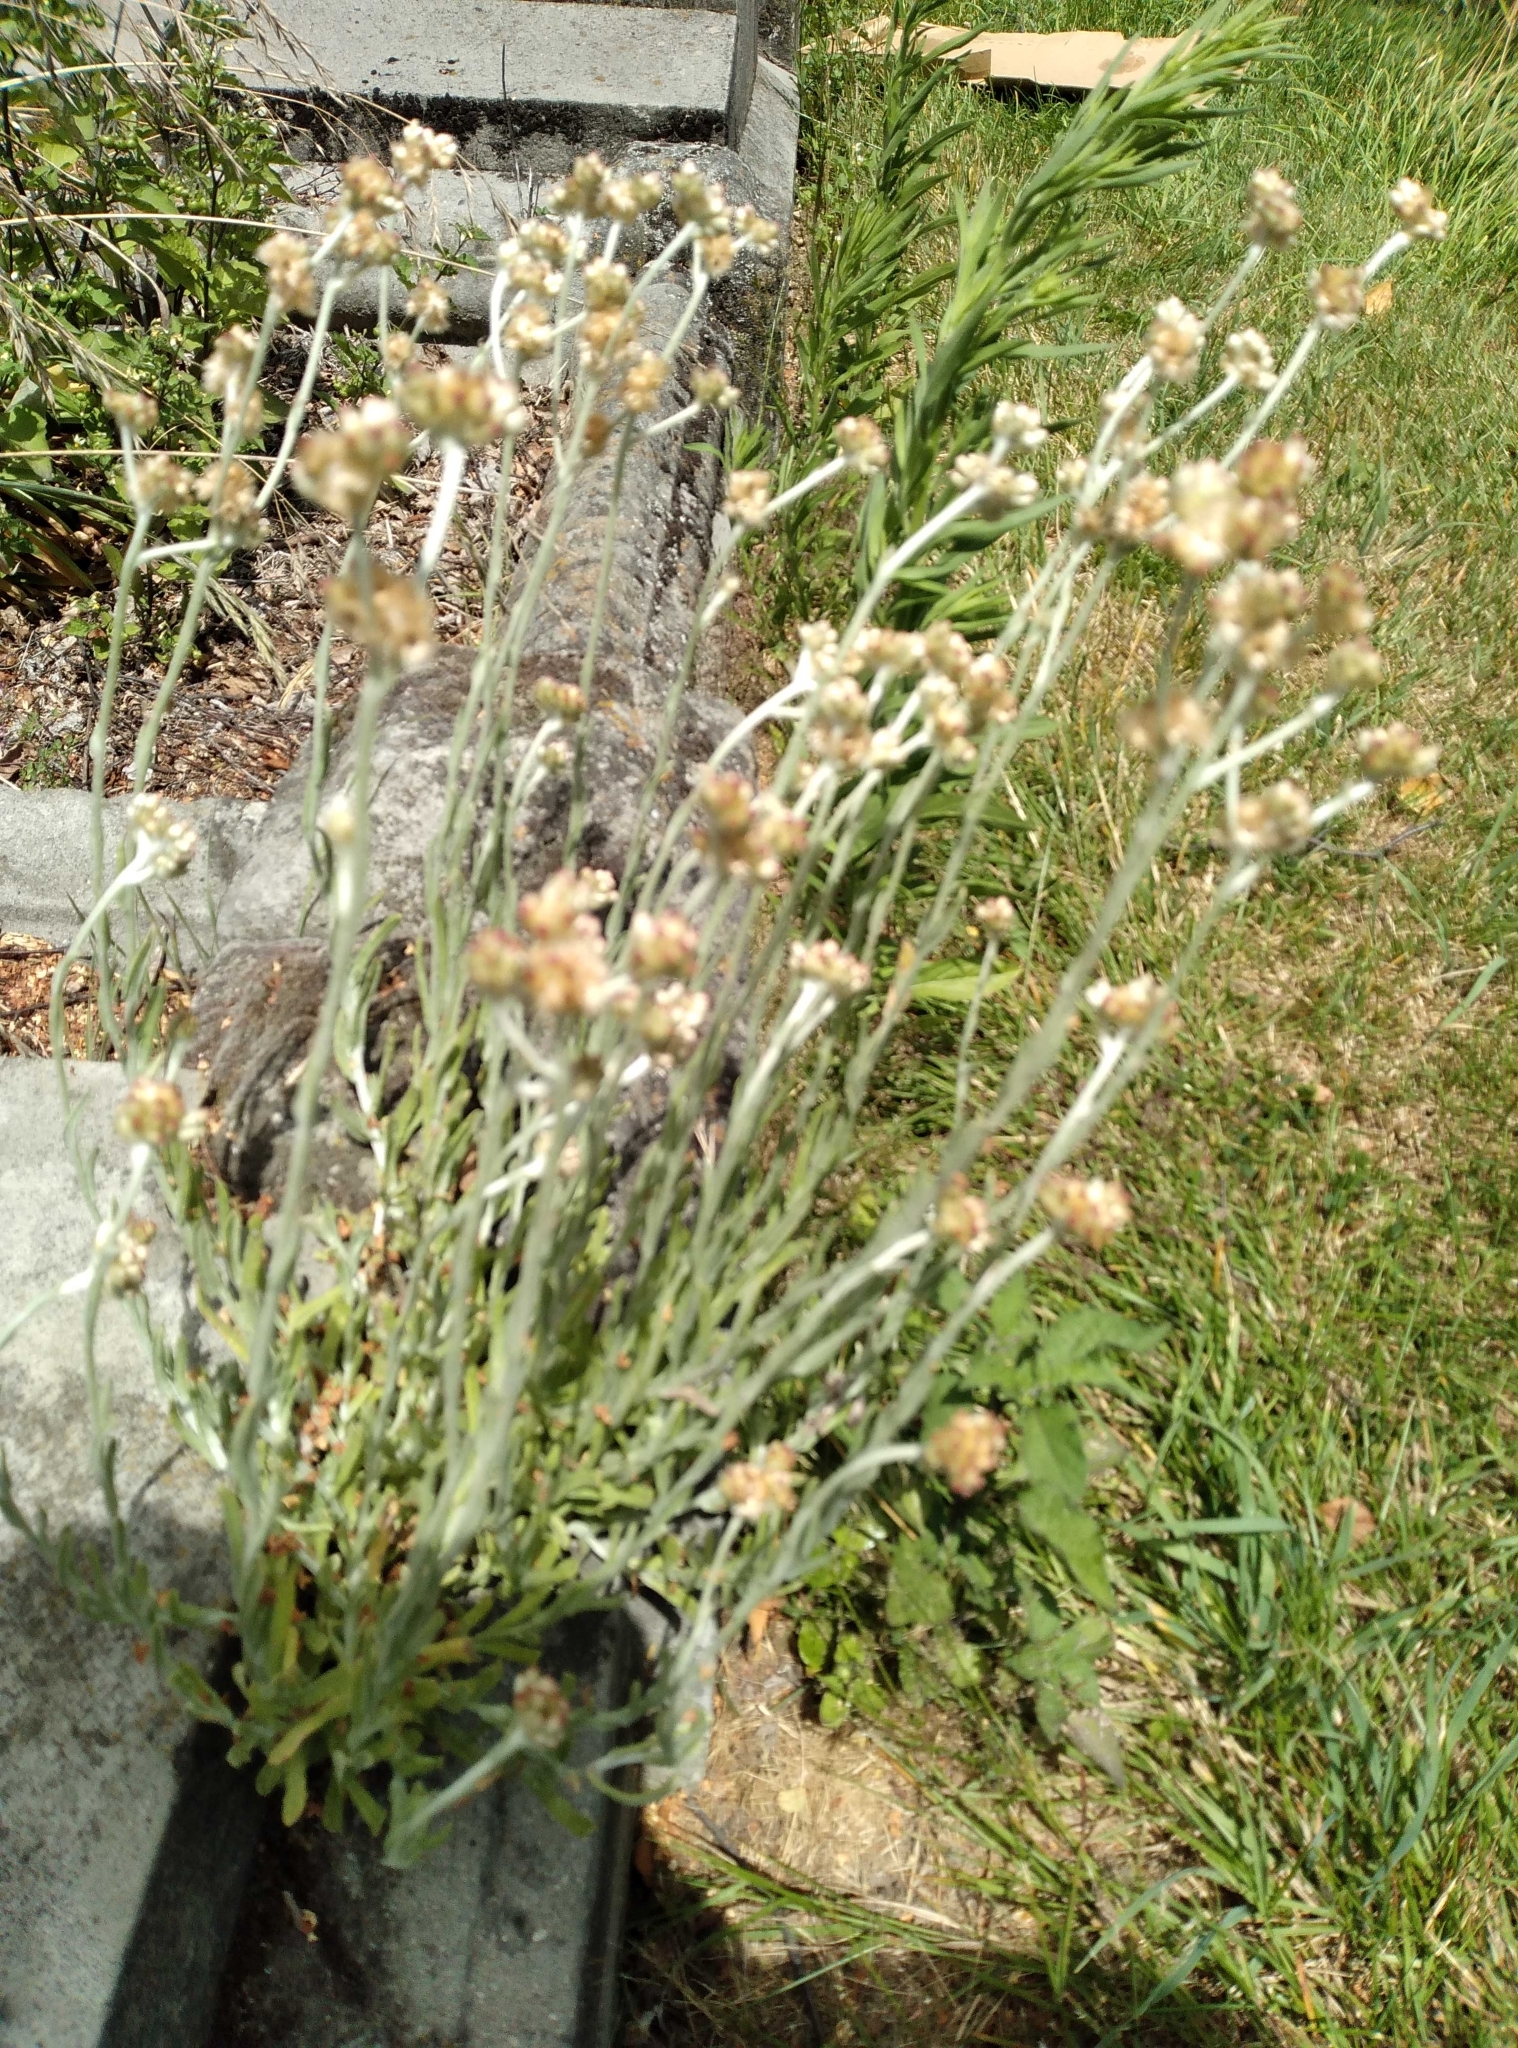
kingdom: Plantae
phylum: Tracheophyta
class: Magnoliopsida
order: Asterales
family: Asteraceae
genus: Helichrysum
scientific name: Helichrysum luteoalbum
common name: Daisy
